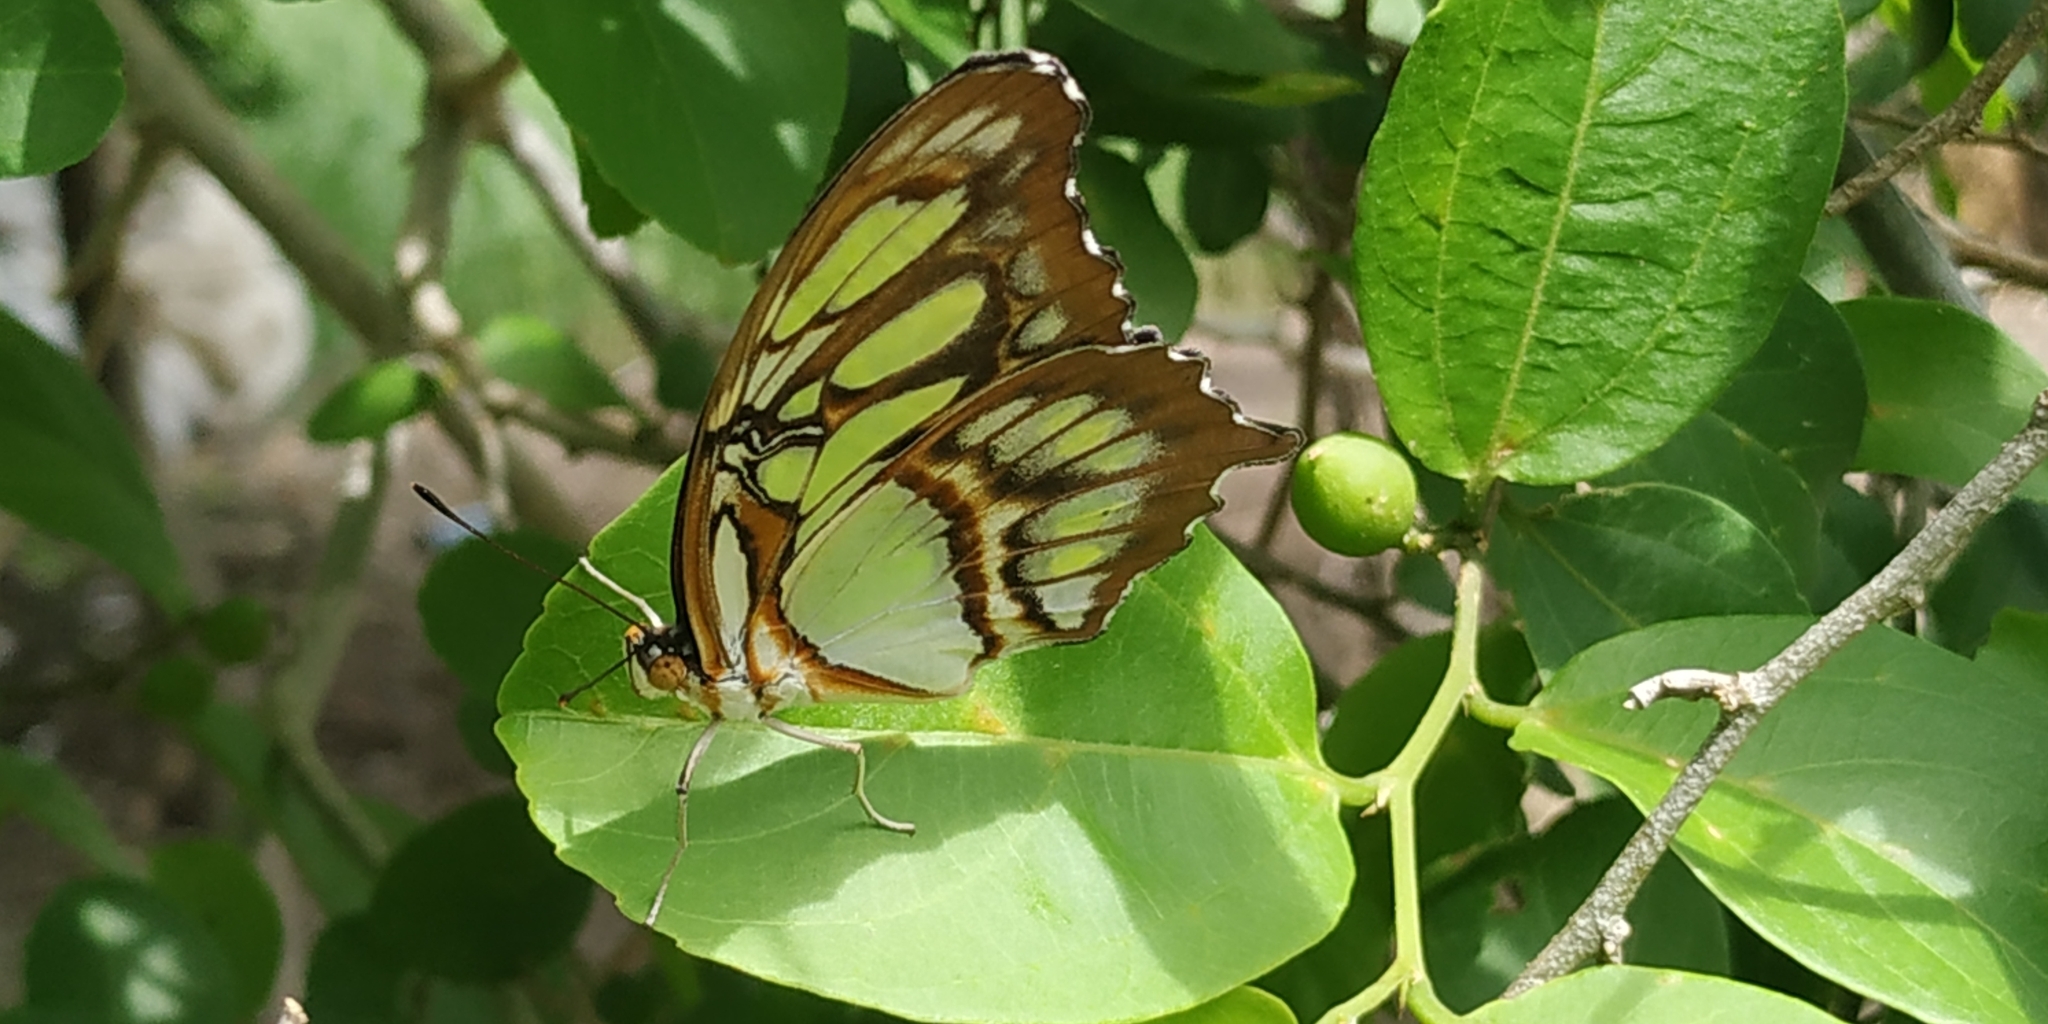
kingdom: Animalia
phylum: Arthropoda
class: Insecta
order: Lepidoptera
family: Nymphalidae
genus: Siproeta
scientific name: Siproeta stelenes
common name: Malachite
